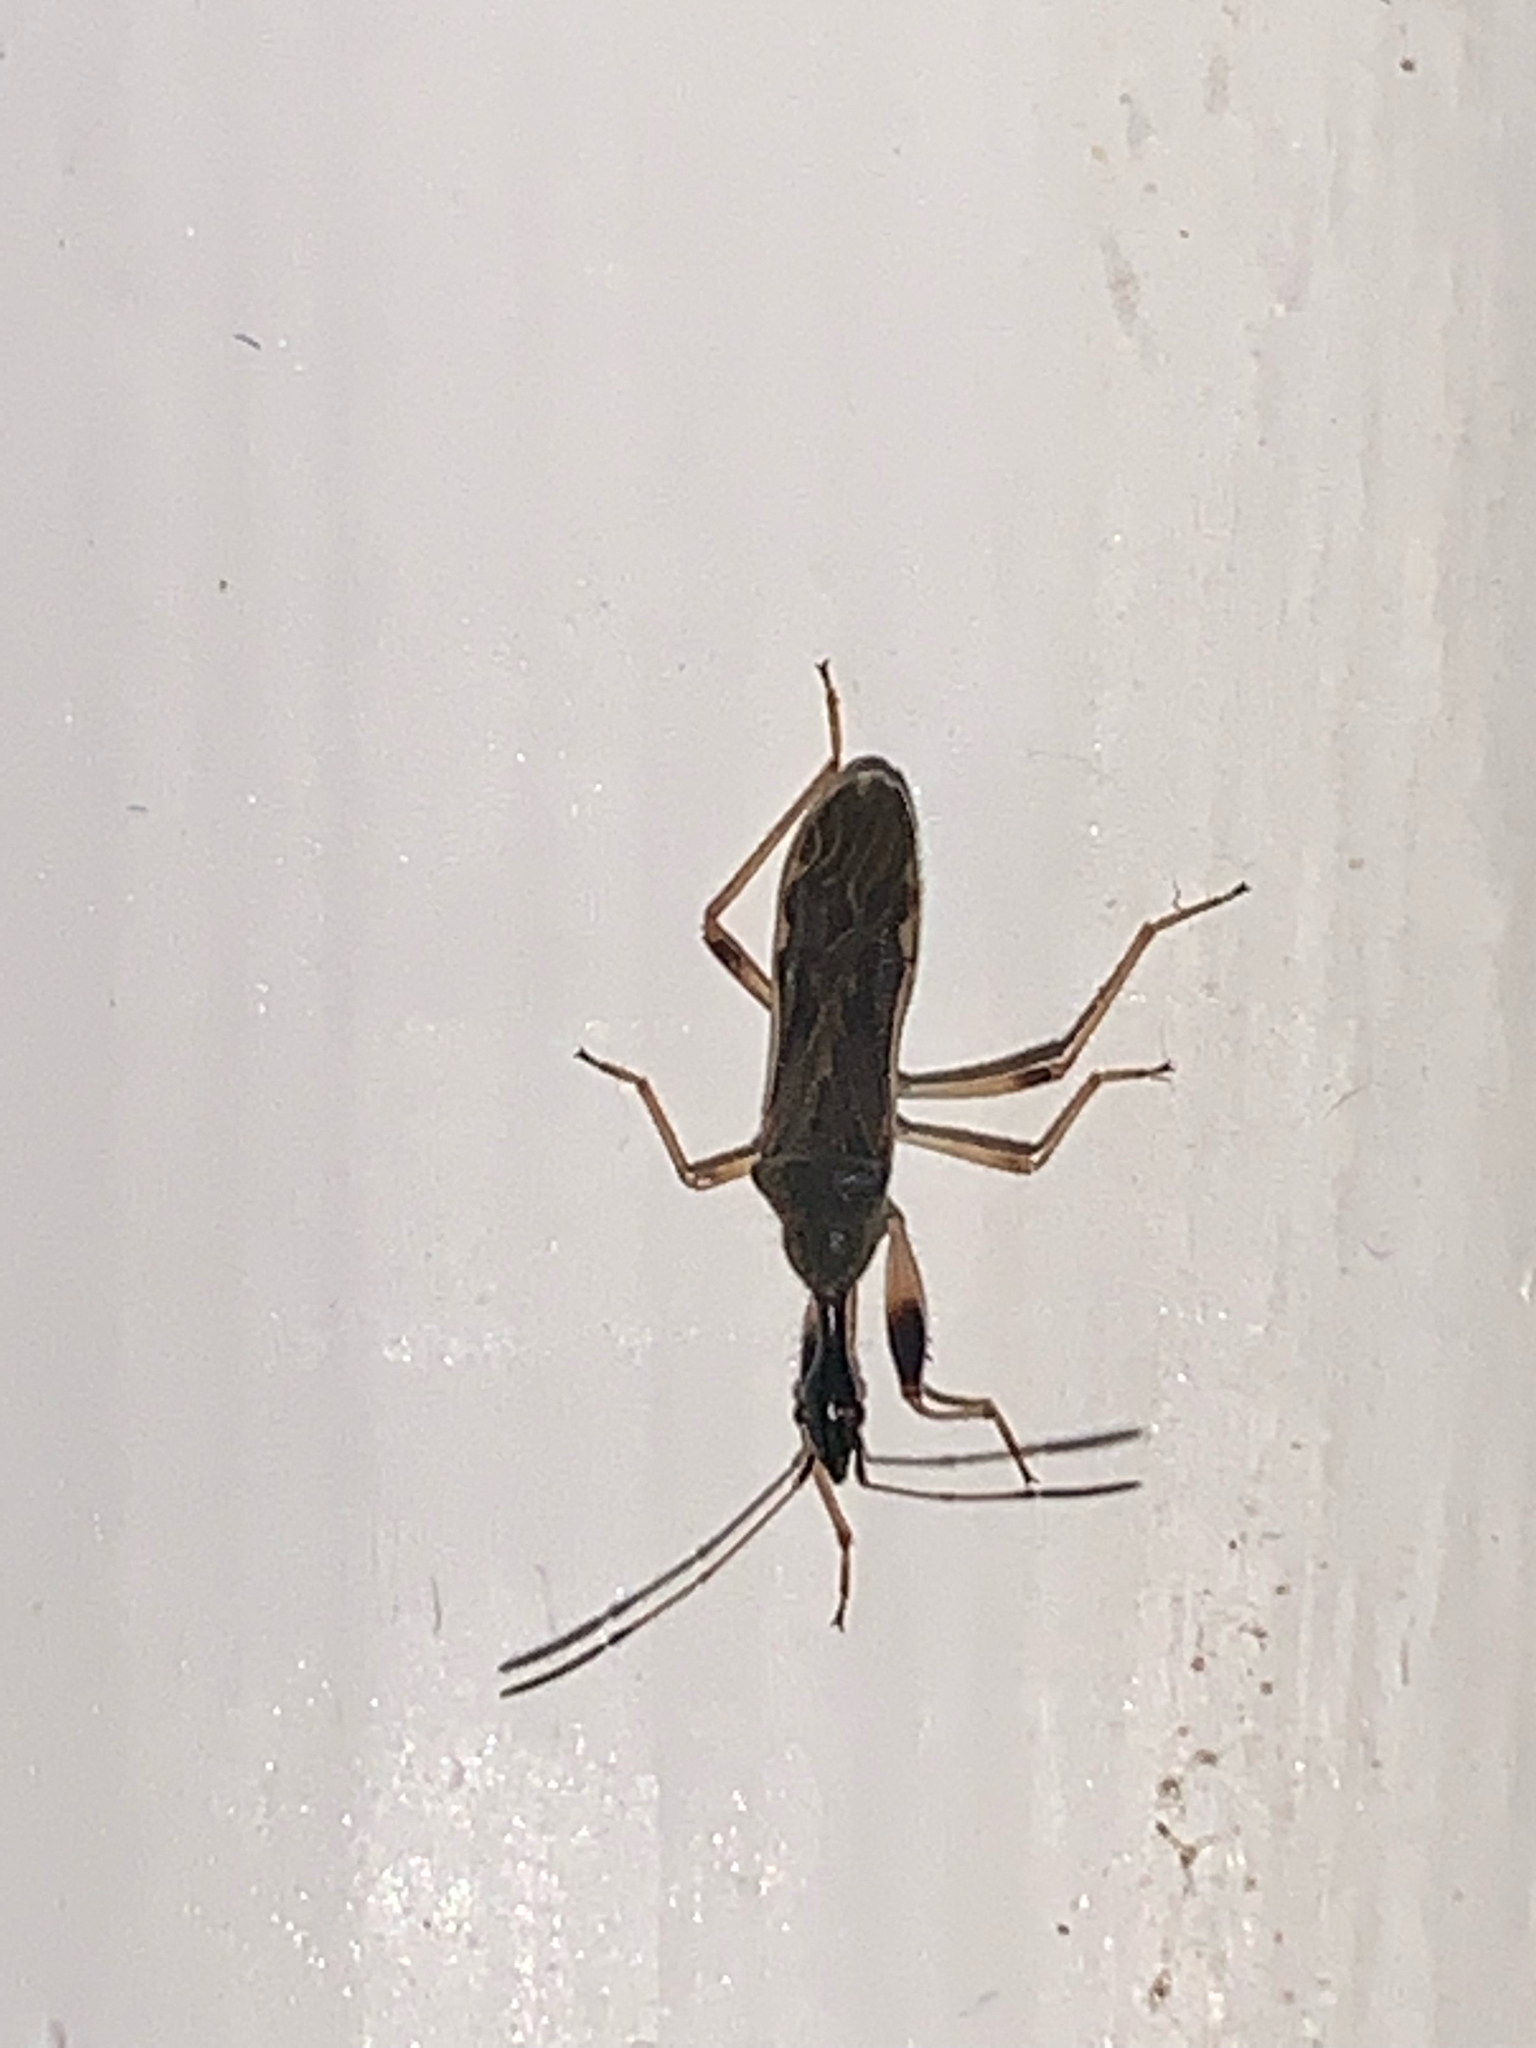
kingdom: Animalia
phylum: Arthropoda
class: Insecta
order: Hemiptera
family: Rhyparochromidae
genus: Myodocha
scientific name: Myodocha serripes
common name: Long-necked seed bug
